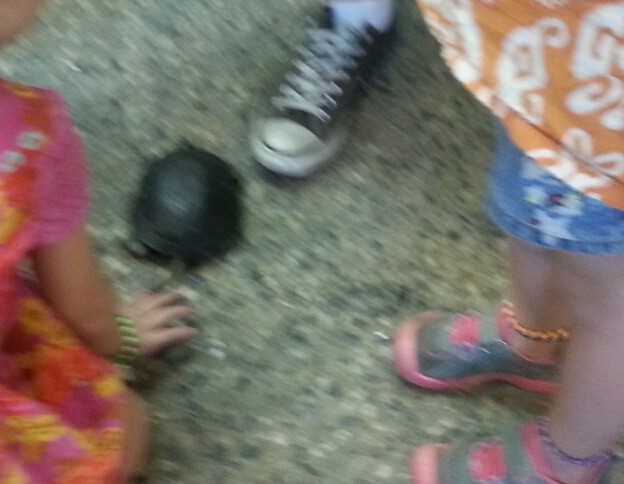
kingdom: Animalia
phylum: Chordata
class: Testudines
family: Emydidae
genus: Actinemys
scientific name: Actinemys marmorata
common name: Western pond turtle
